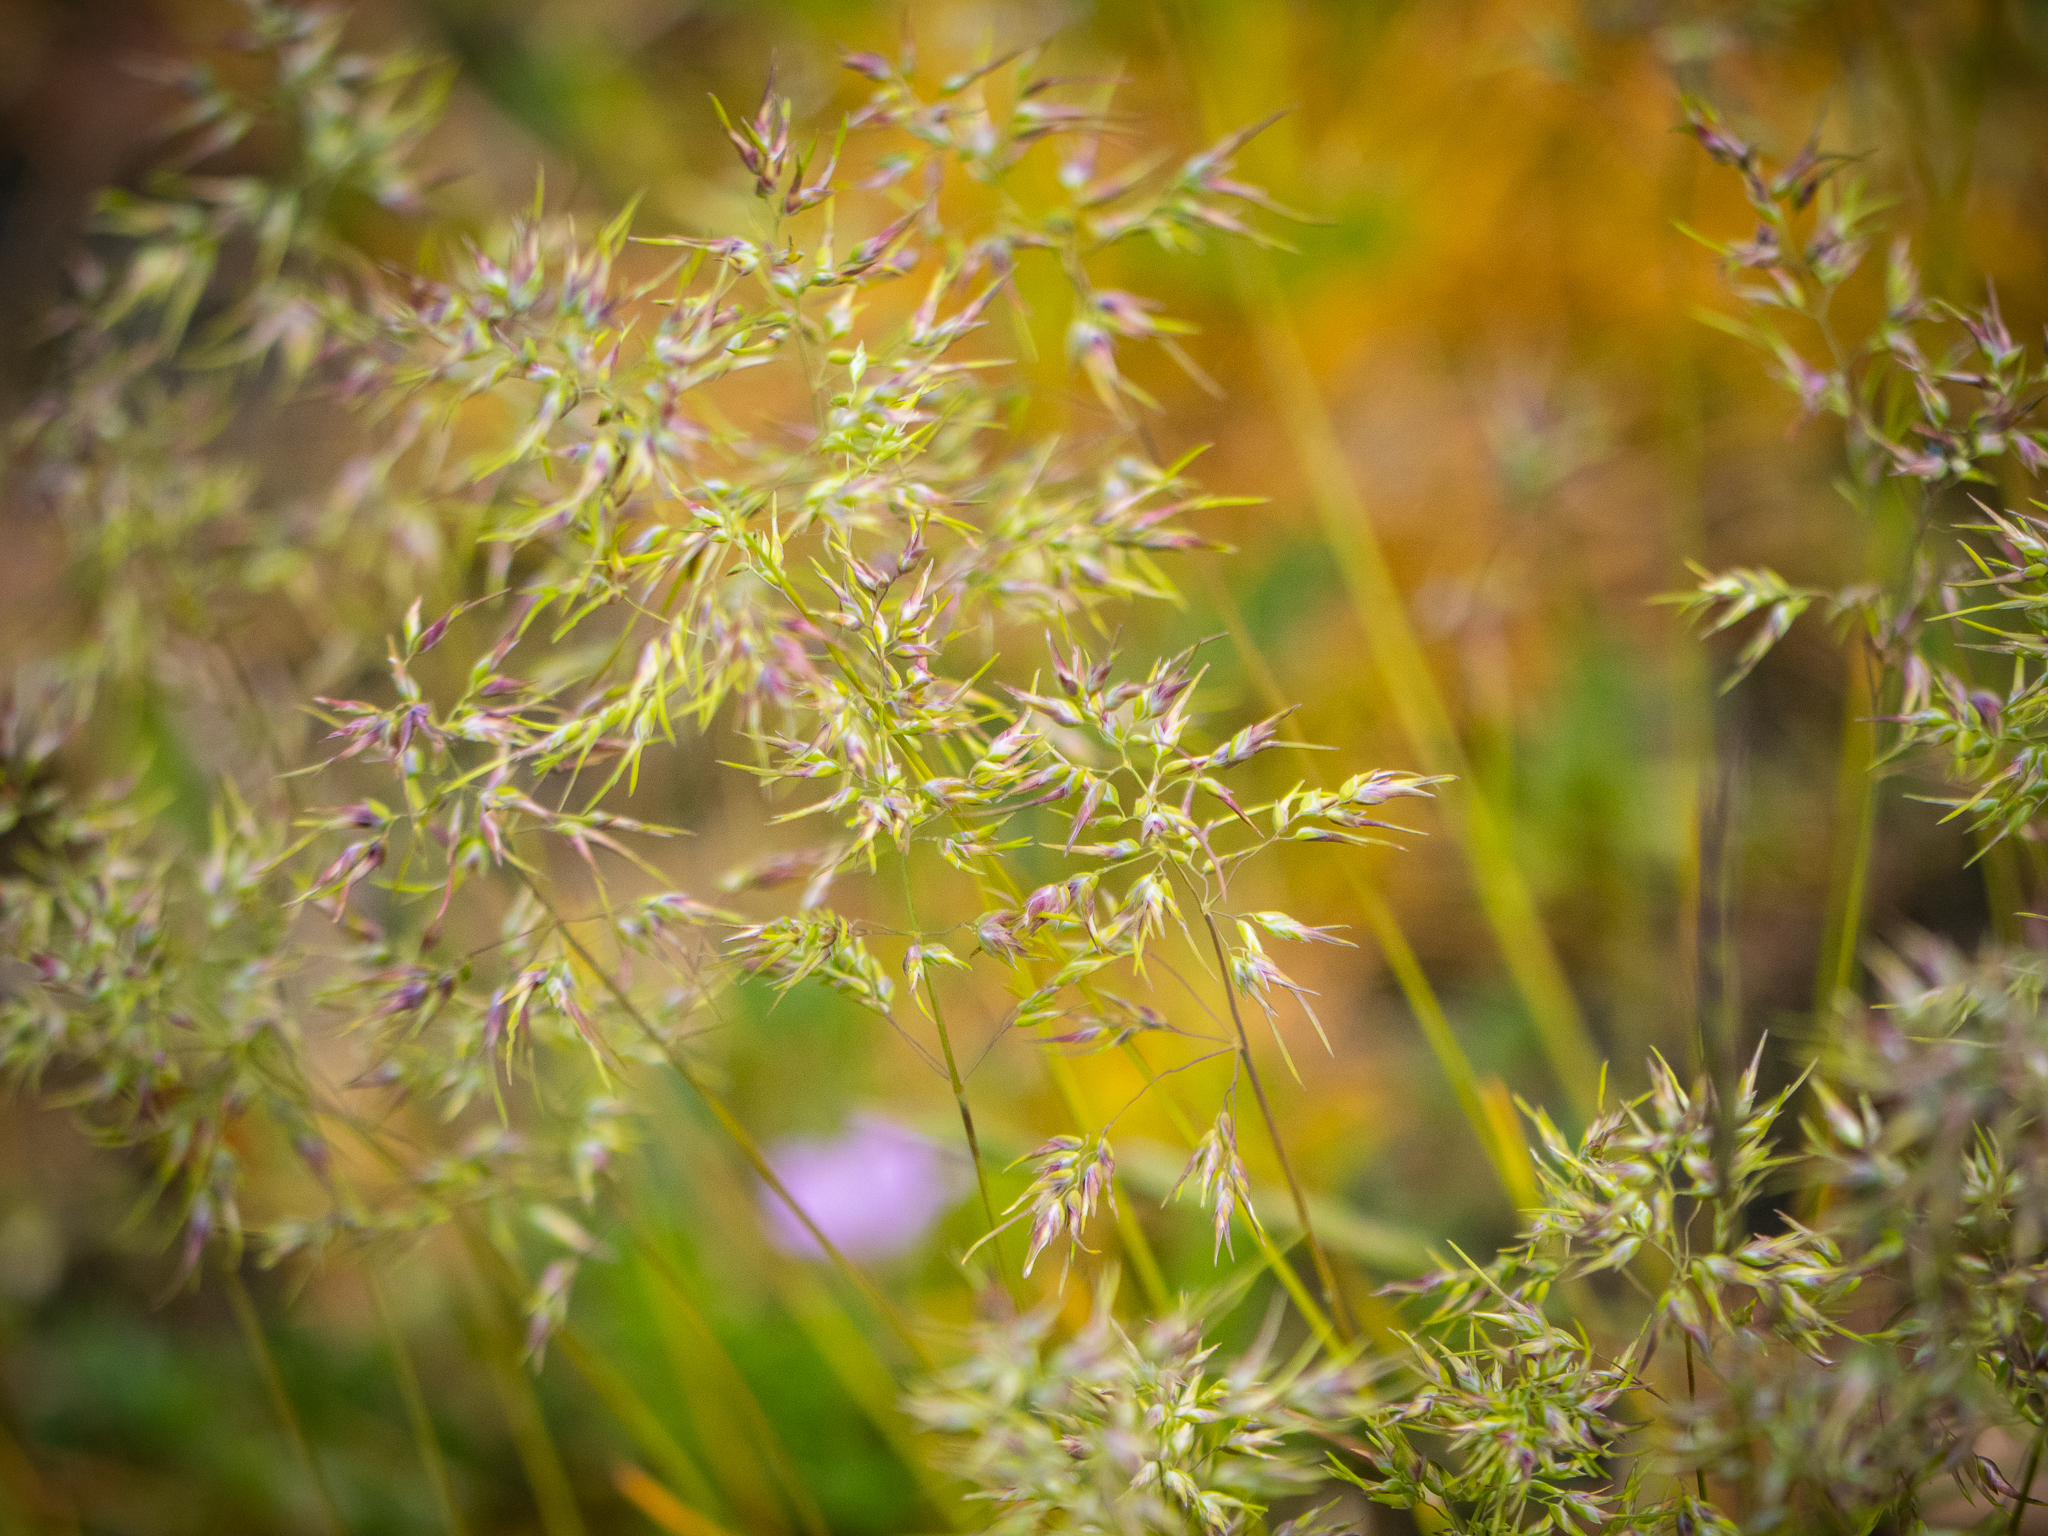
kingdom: Plantae
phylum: Tracheophyta
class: Liliopsida
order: Poales
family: Poaceae
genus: Poa
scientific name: Poa bulbosa
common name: Bulbous bluegrass
